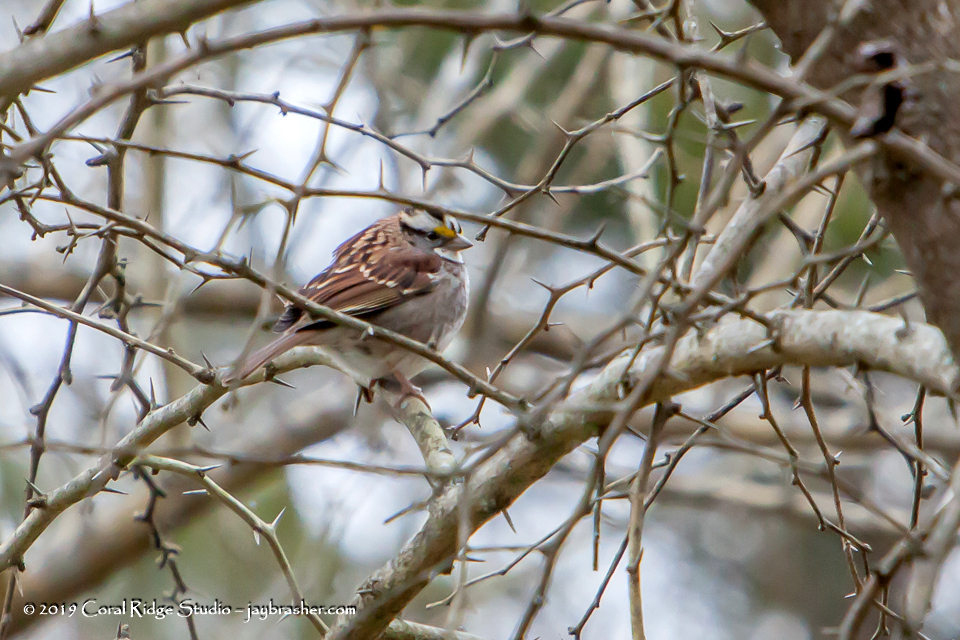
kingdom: Animalia
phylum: Chordata
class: Aves
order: Passeriformes
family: Passerellidae
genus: Zonotrichia
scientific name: Zonotrichia albicollis
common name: White-throated sparrow
